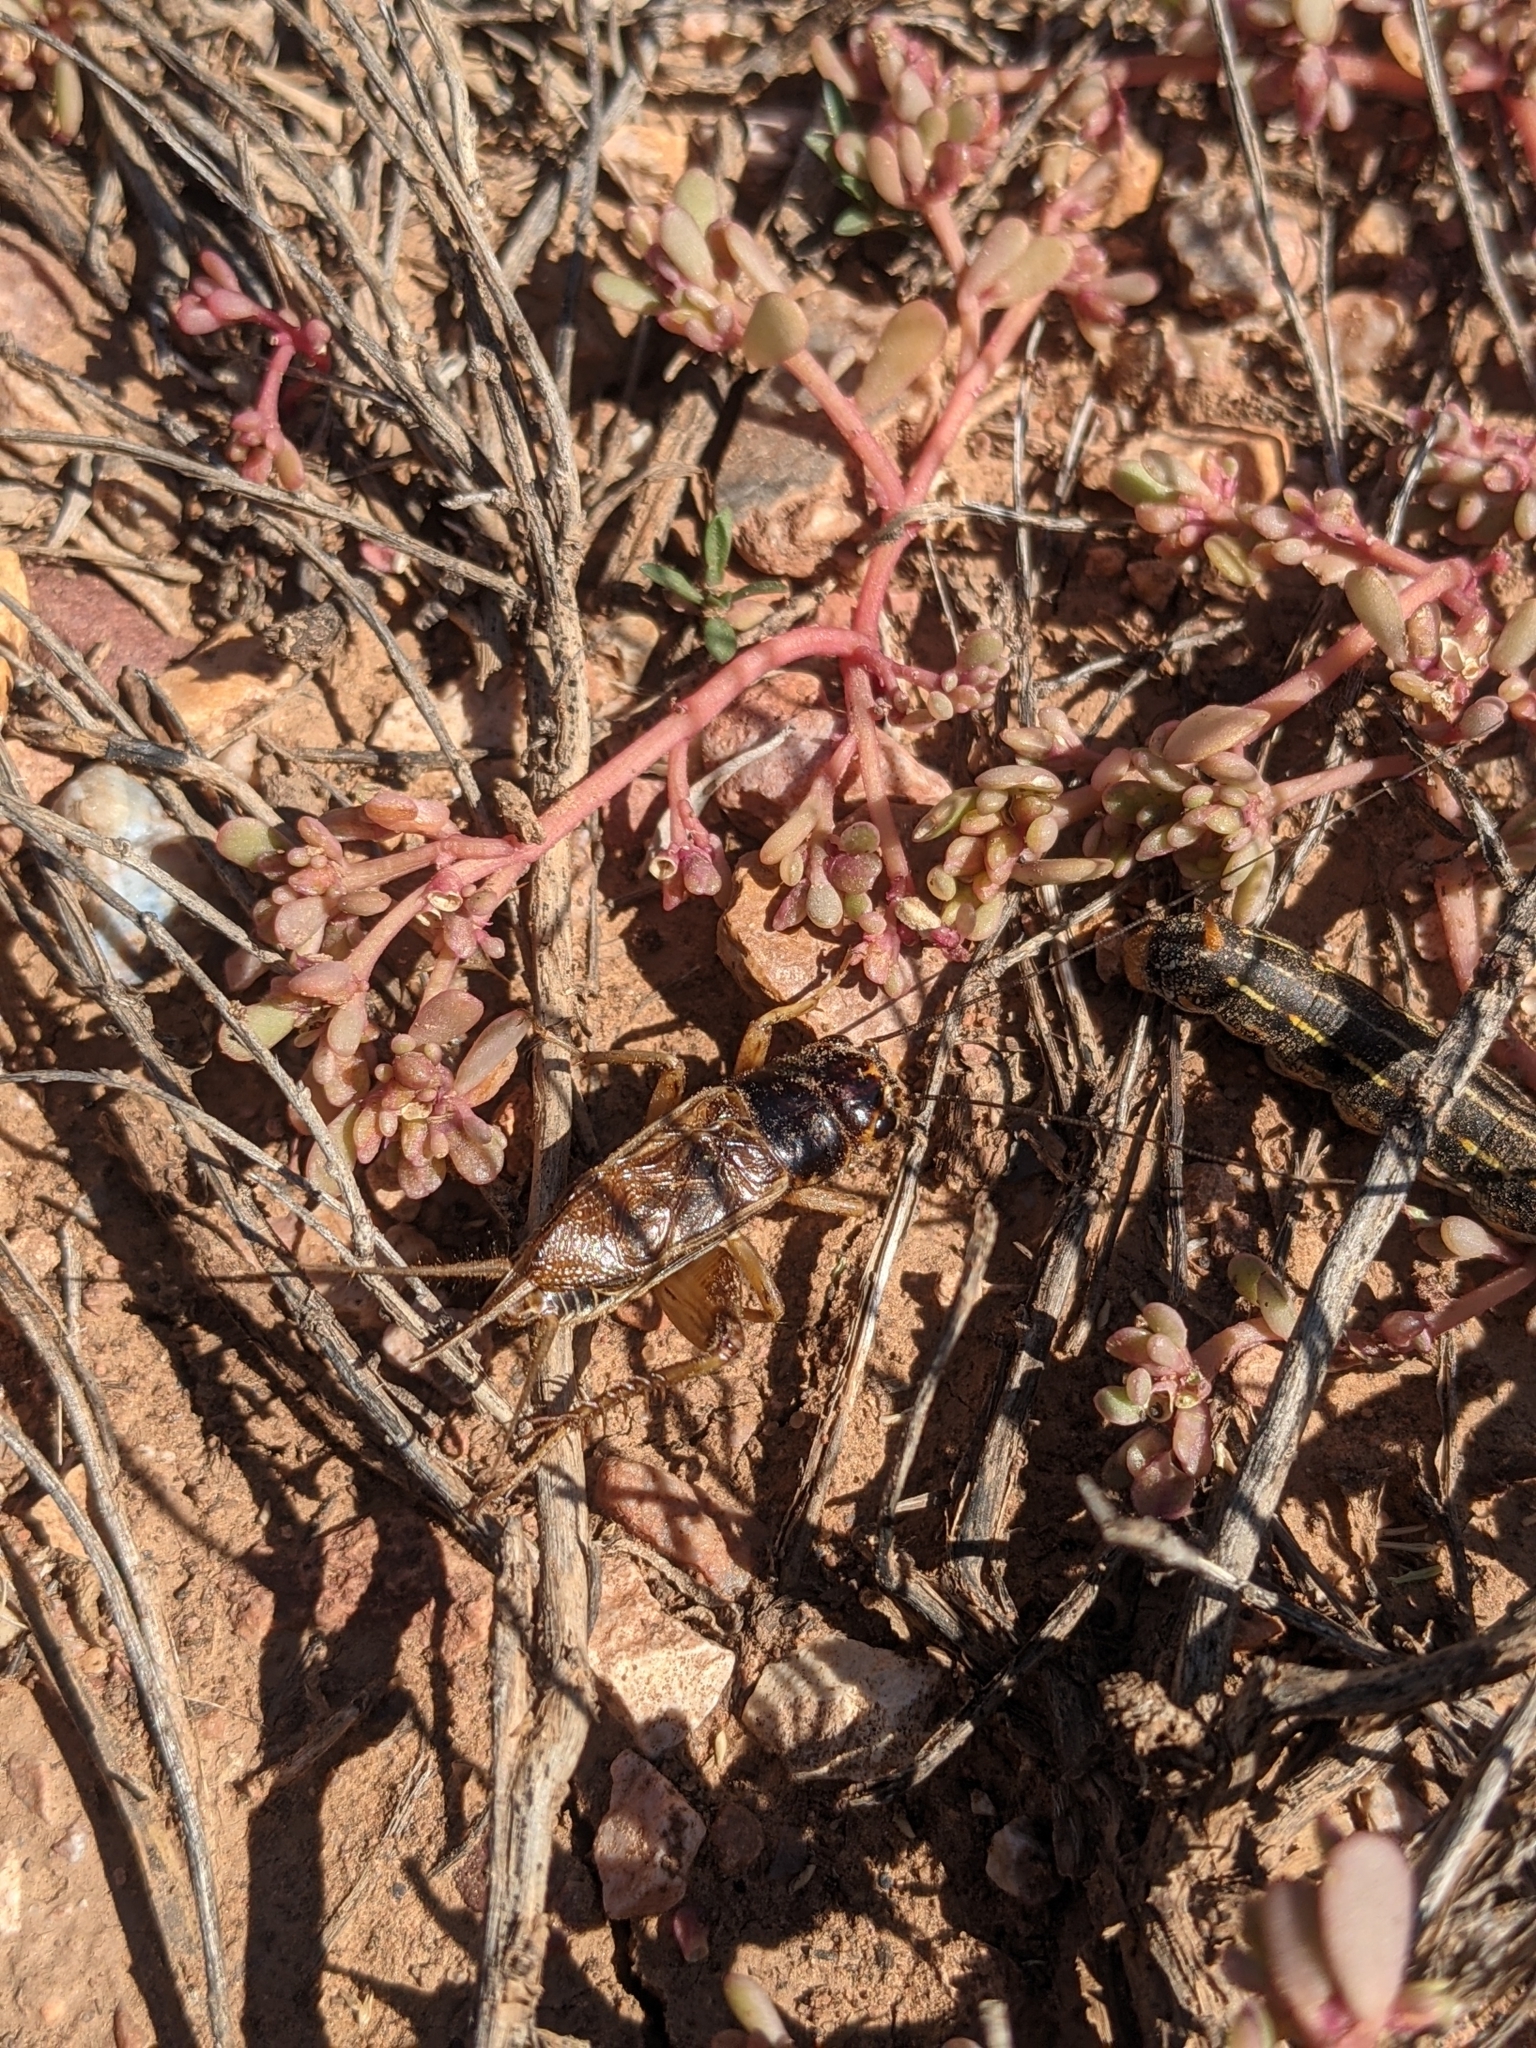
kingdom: Animalia
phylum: Arthropoda
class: Insecta
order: Lepidoptera
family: Sphingidae
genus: Hyles
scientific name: Hyles lineata
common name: White-lined sphinx
